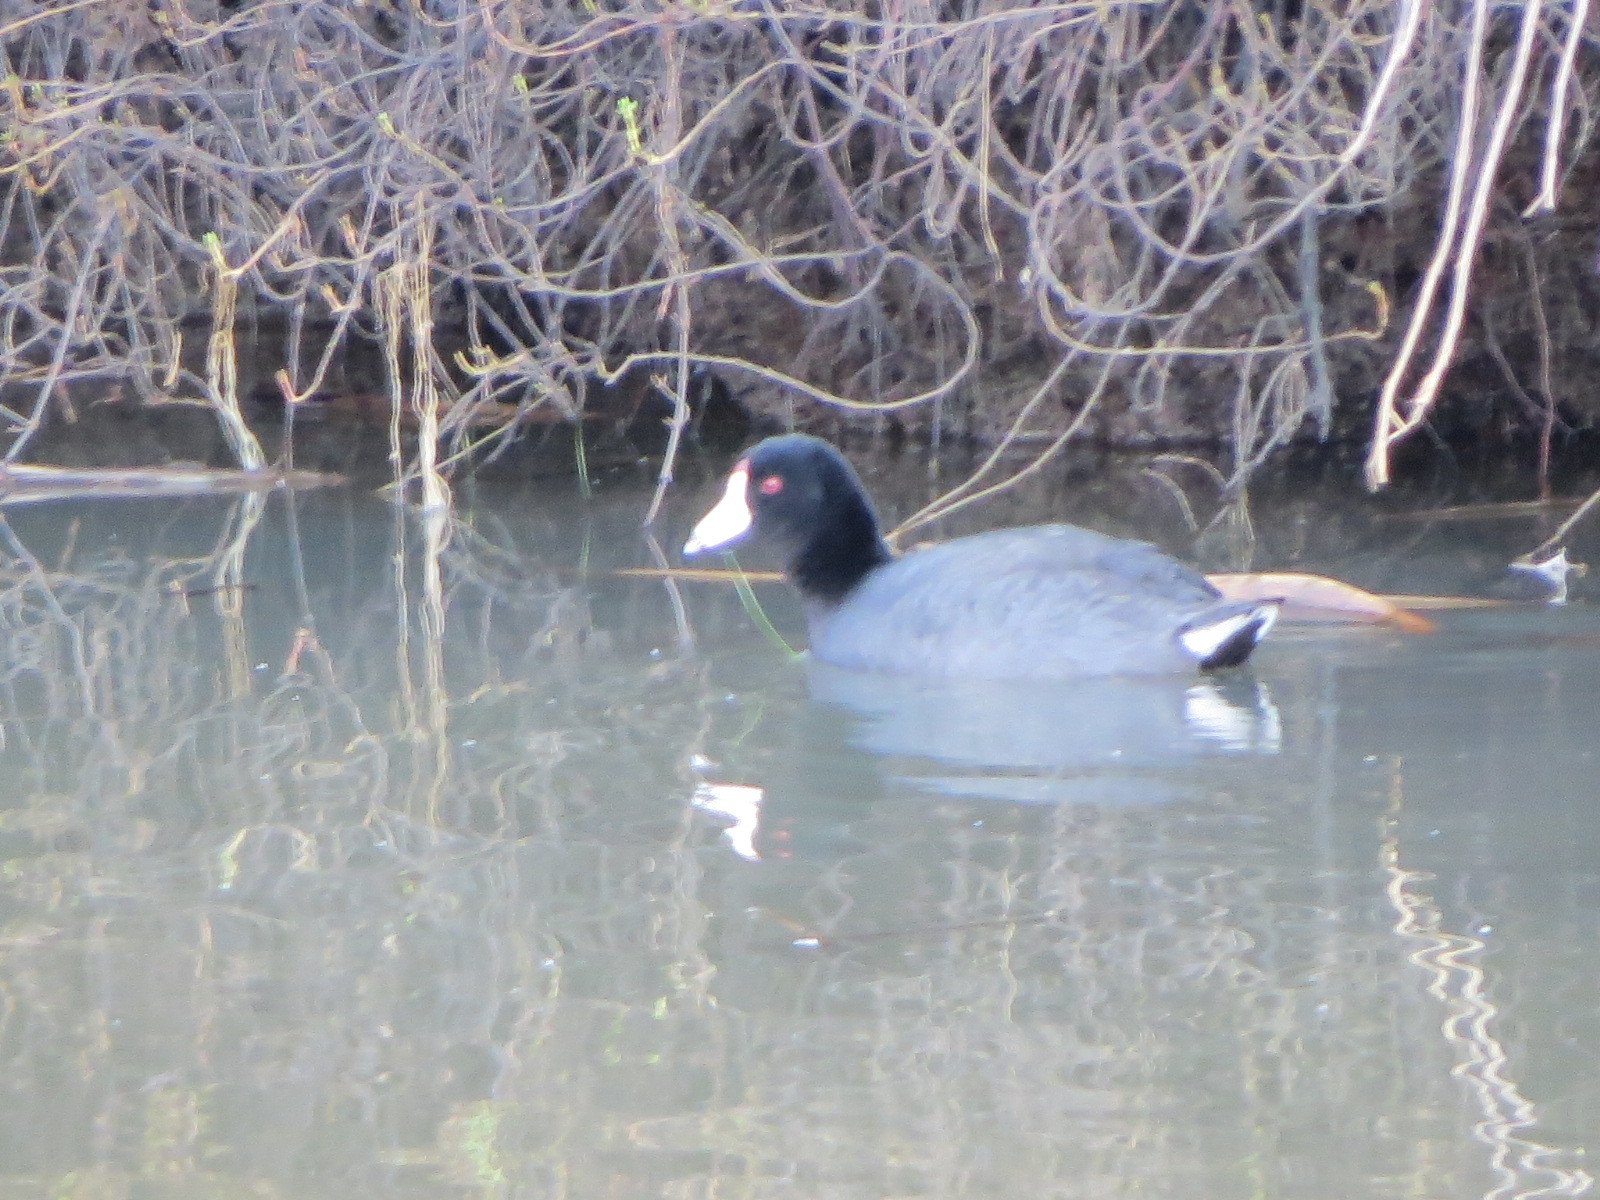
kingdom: Animalia
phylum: Chordata
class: Aves
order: Gruiformes
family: Rallidae
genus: Fulica
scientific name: Fulica americana
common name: American coot
